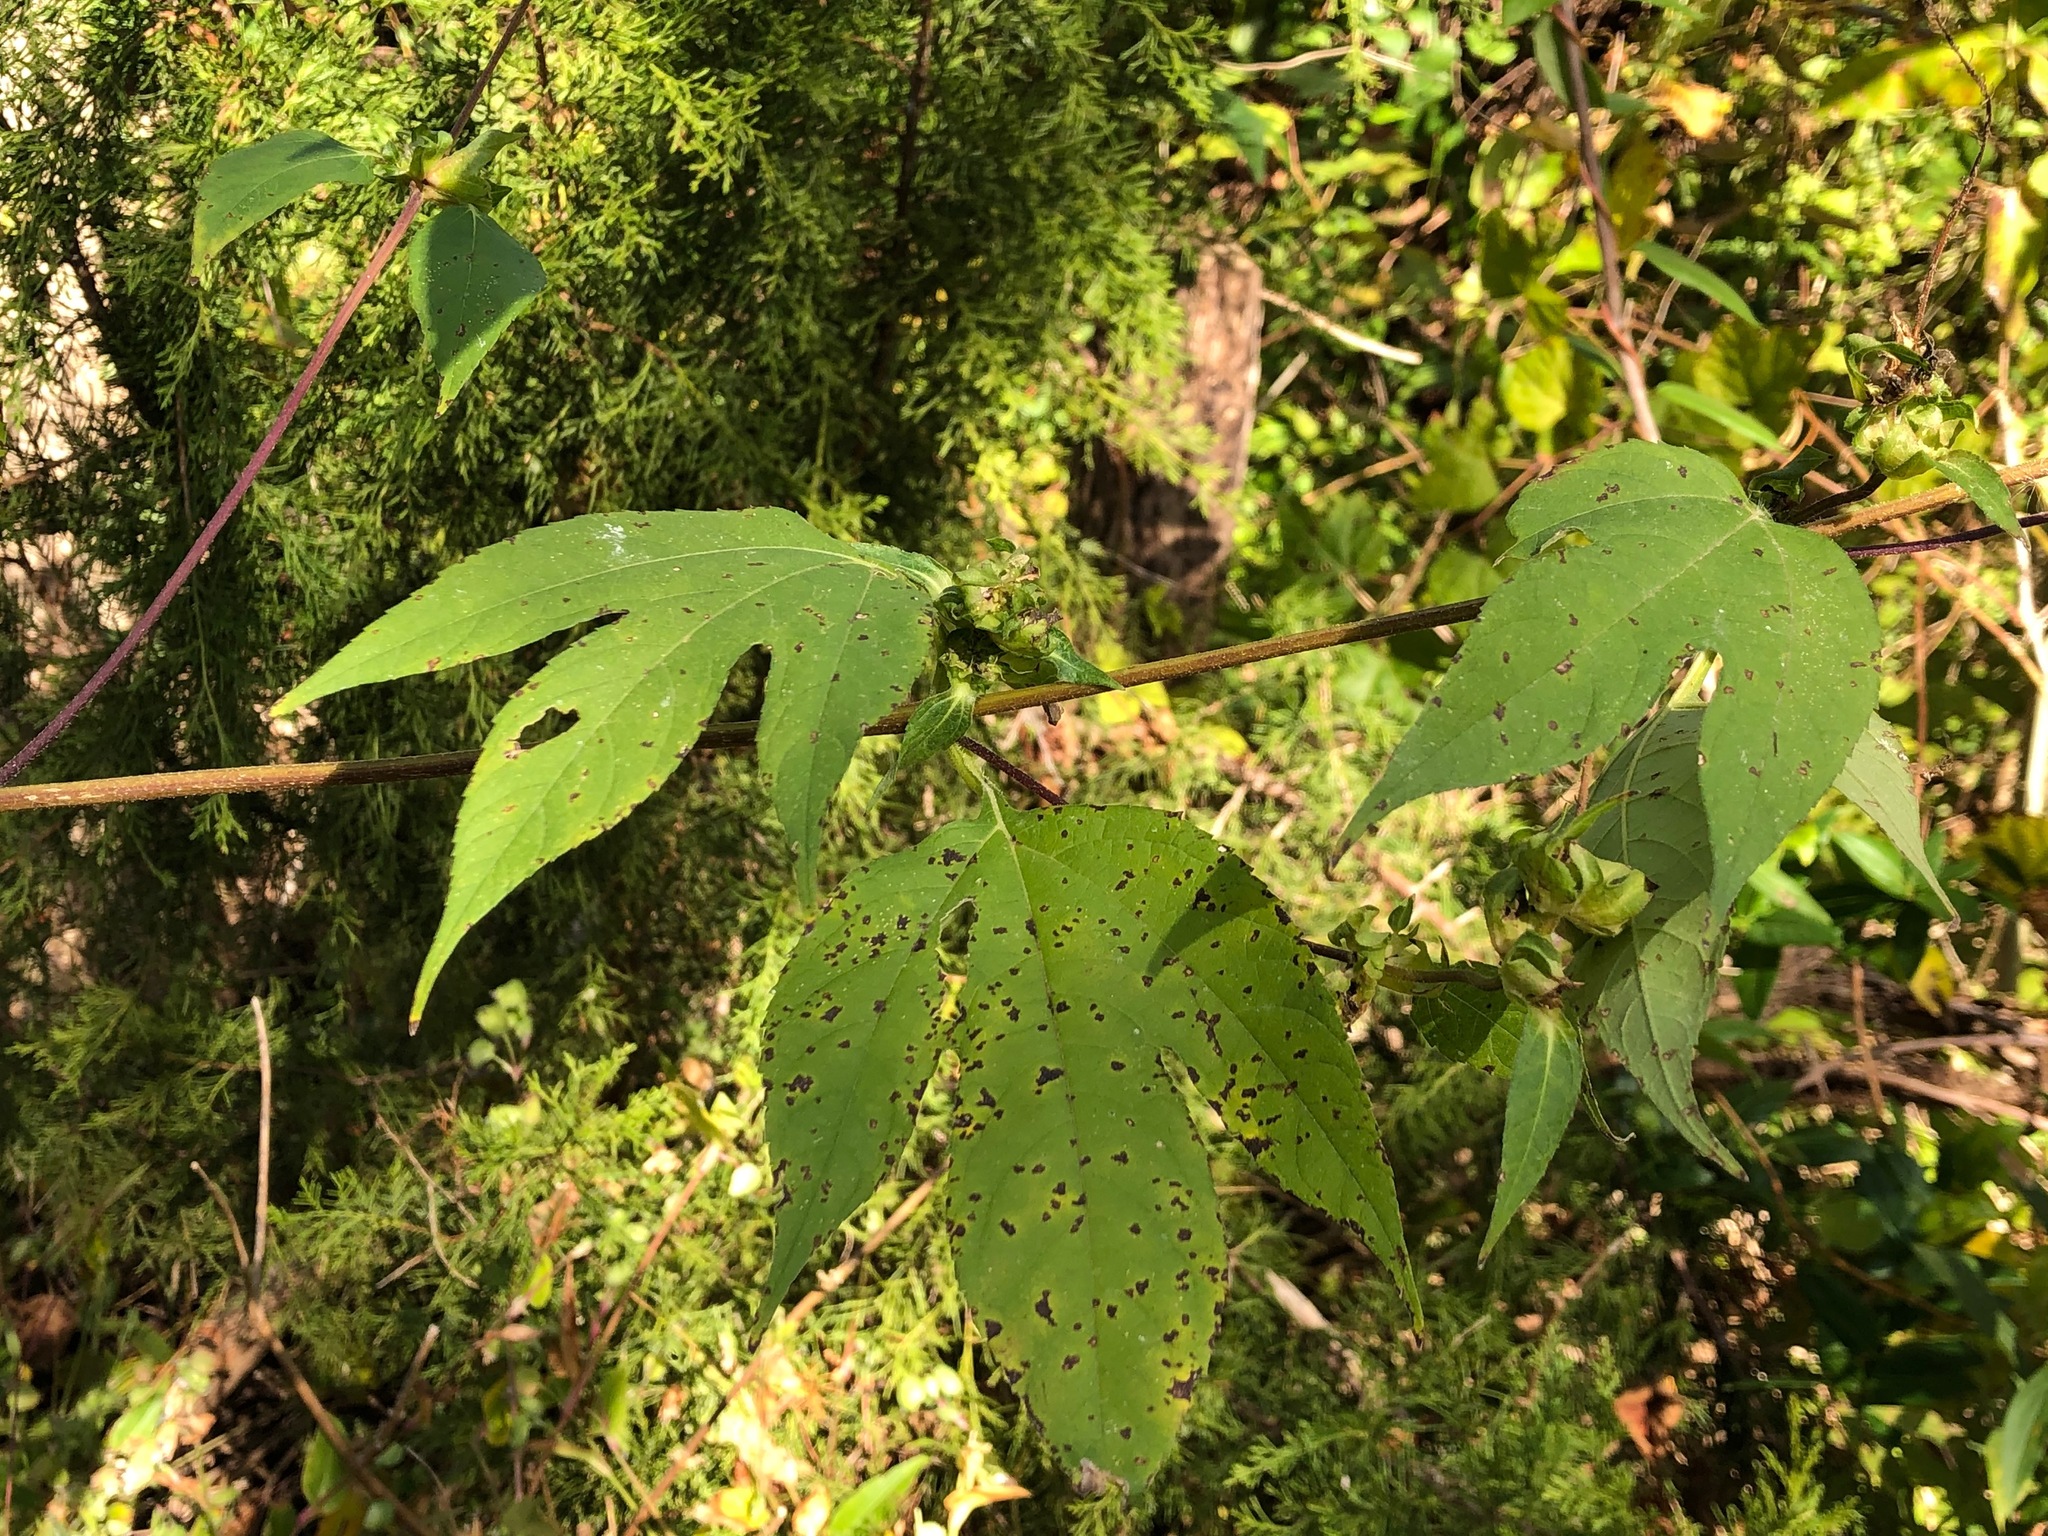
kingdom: Plantae
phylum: Tracheophyta
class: Magnoliopsida
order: Asterales
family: Asteraceae
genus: Ambrosia
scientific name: Ambrosia trifida
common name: Giant ragweed
